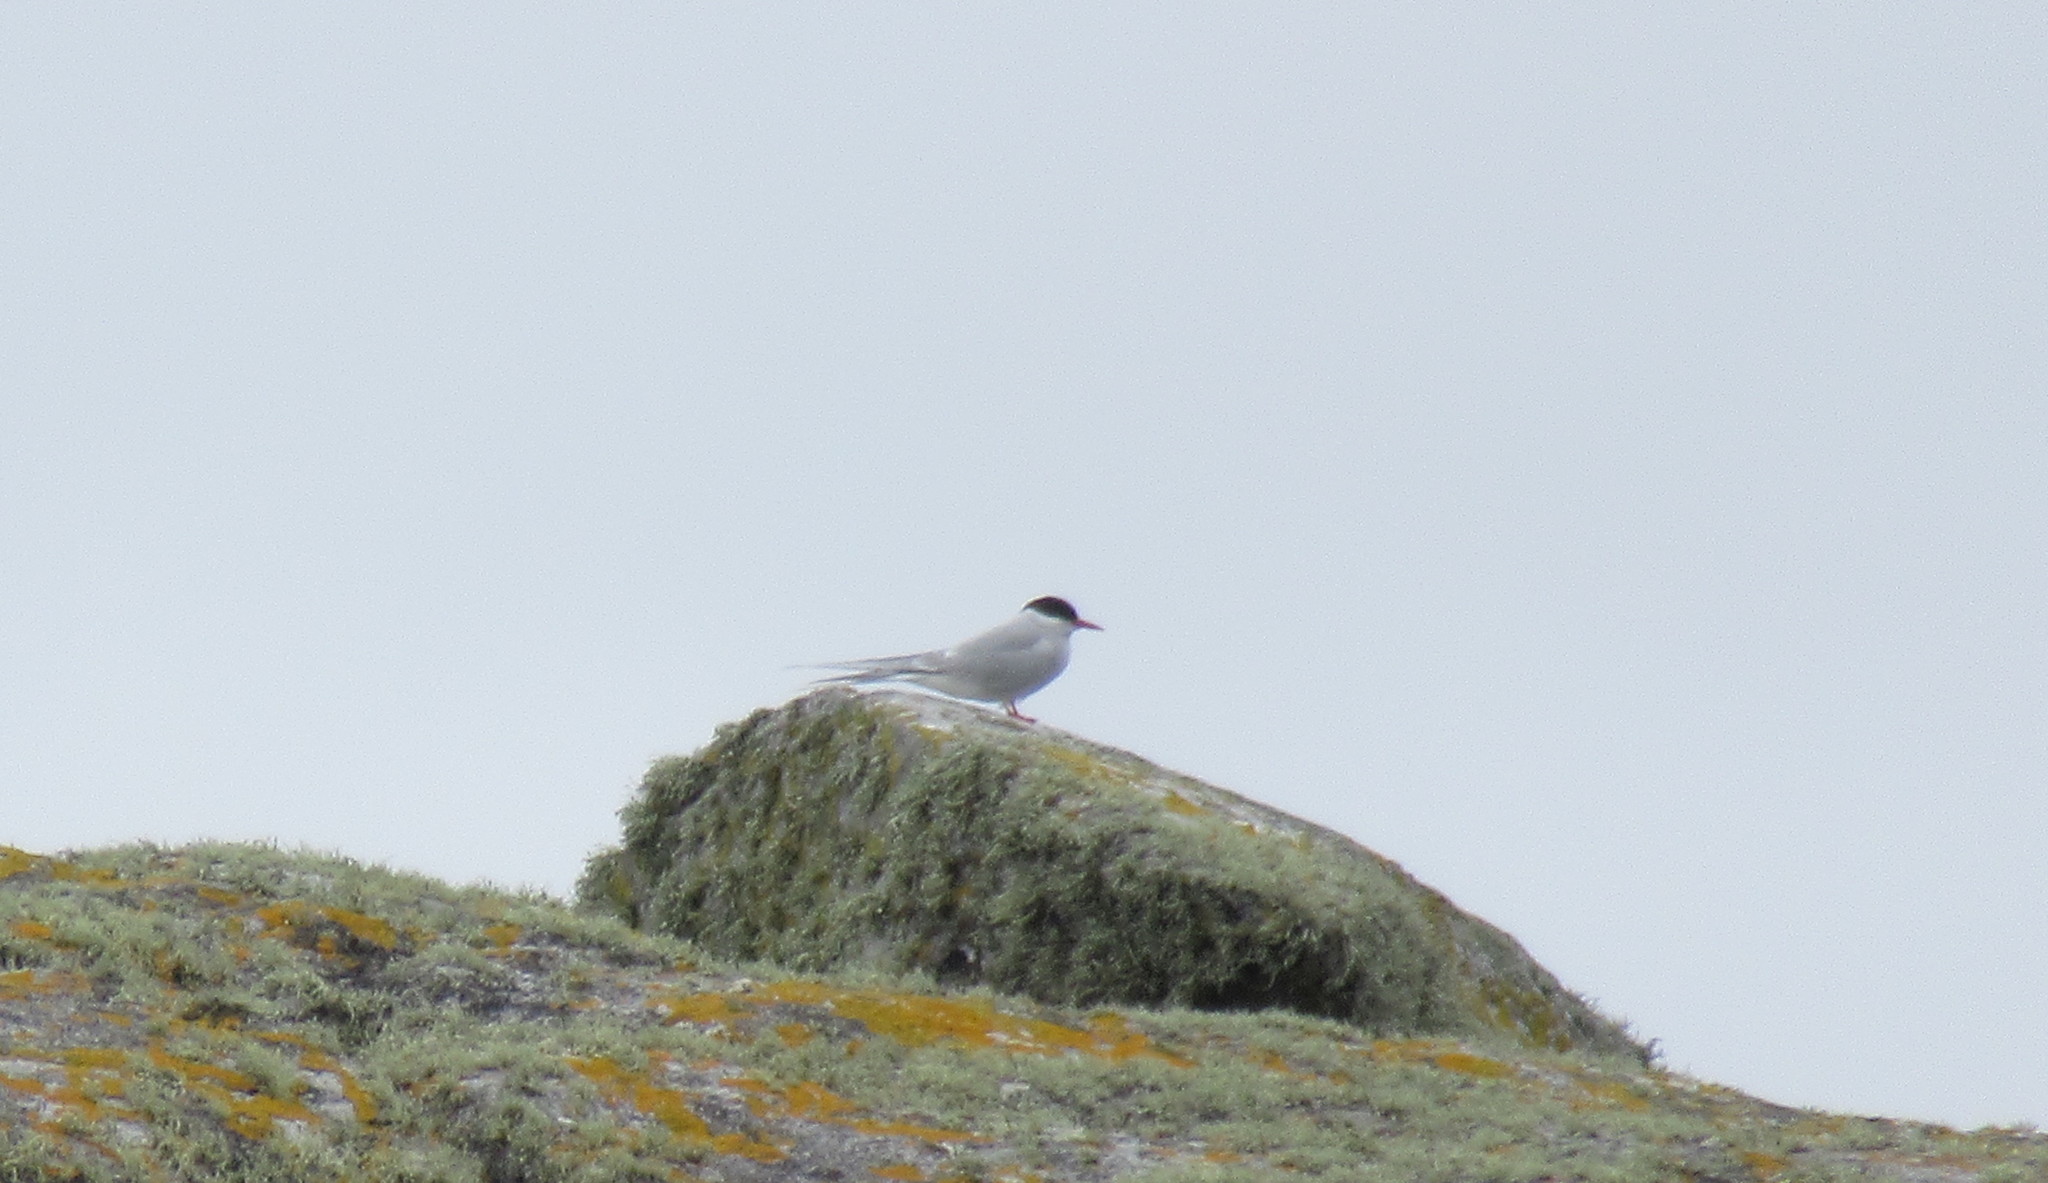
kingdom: Animalia
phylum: Chordata
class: Aves
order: Charadriiformes
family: Laridae
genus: Sterna
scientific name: Sterna paradisaea
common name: Arctic tern
